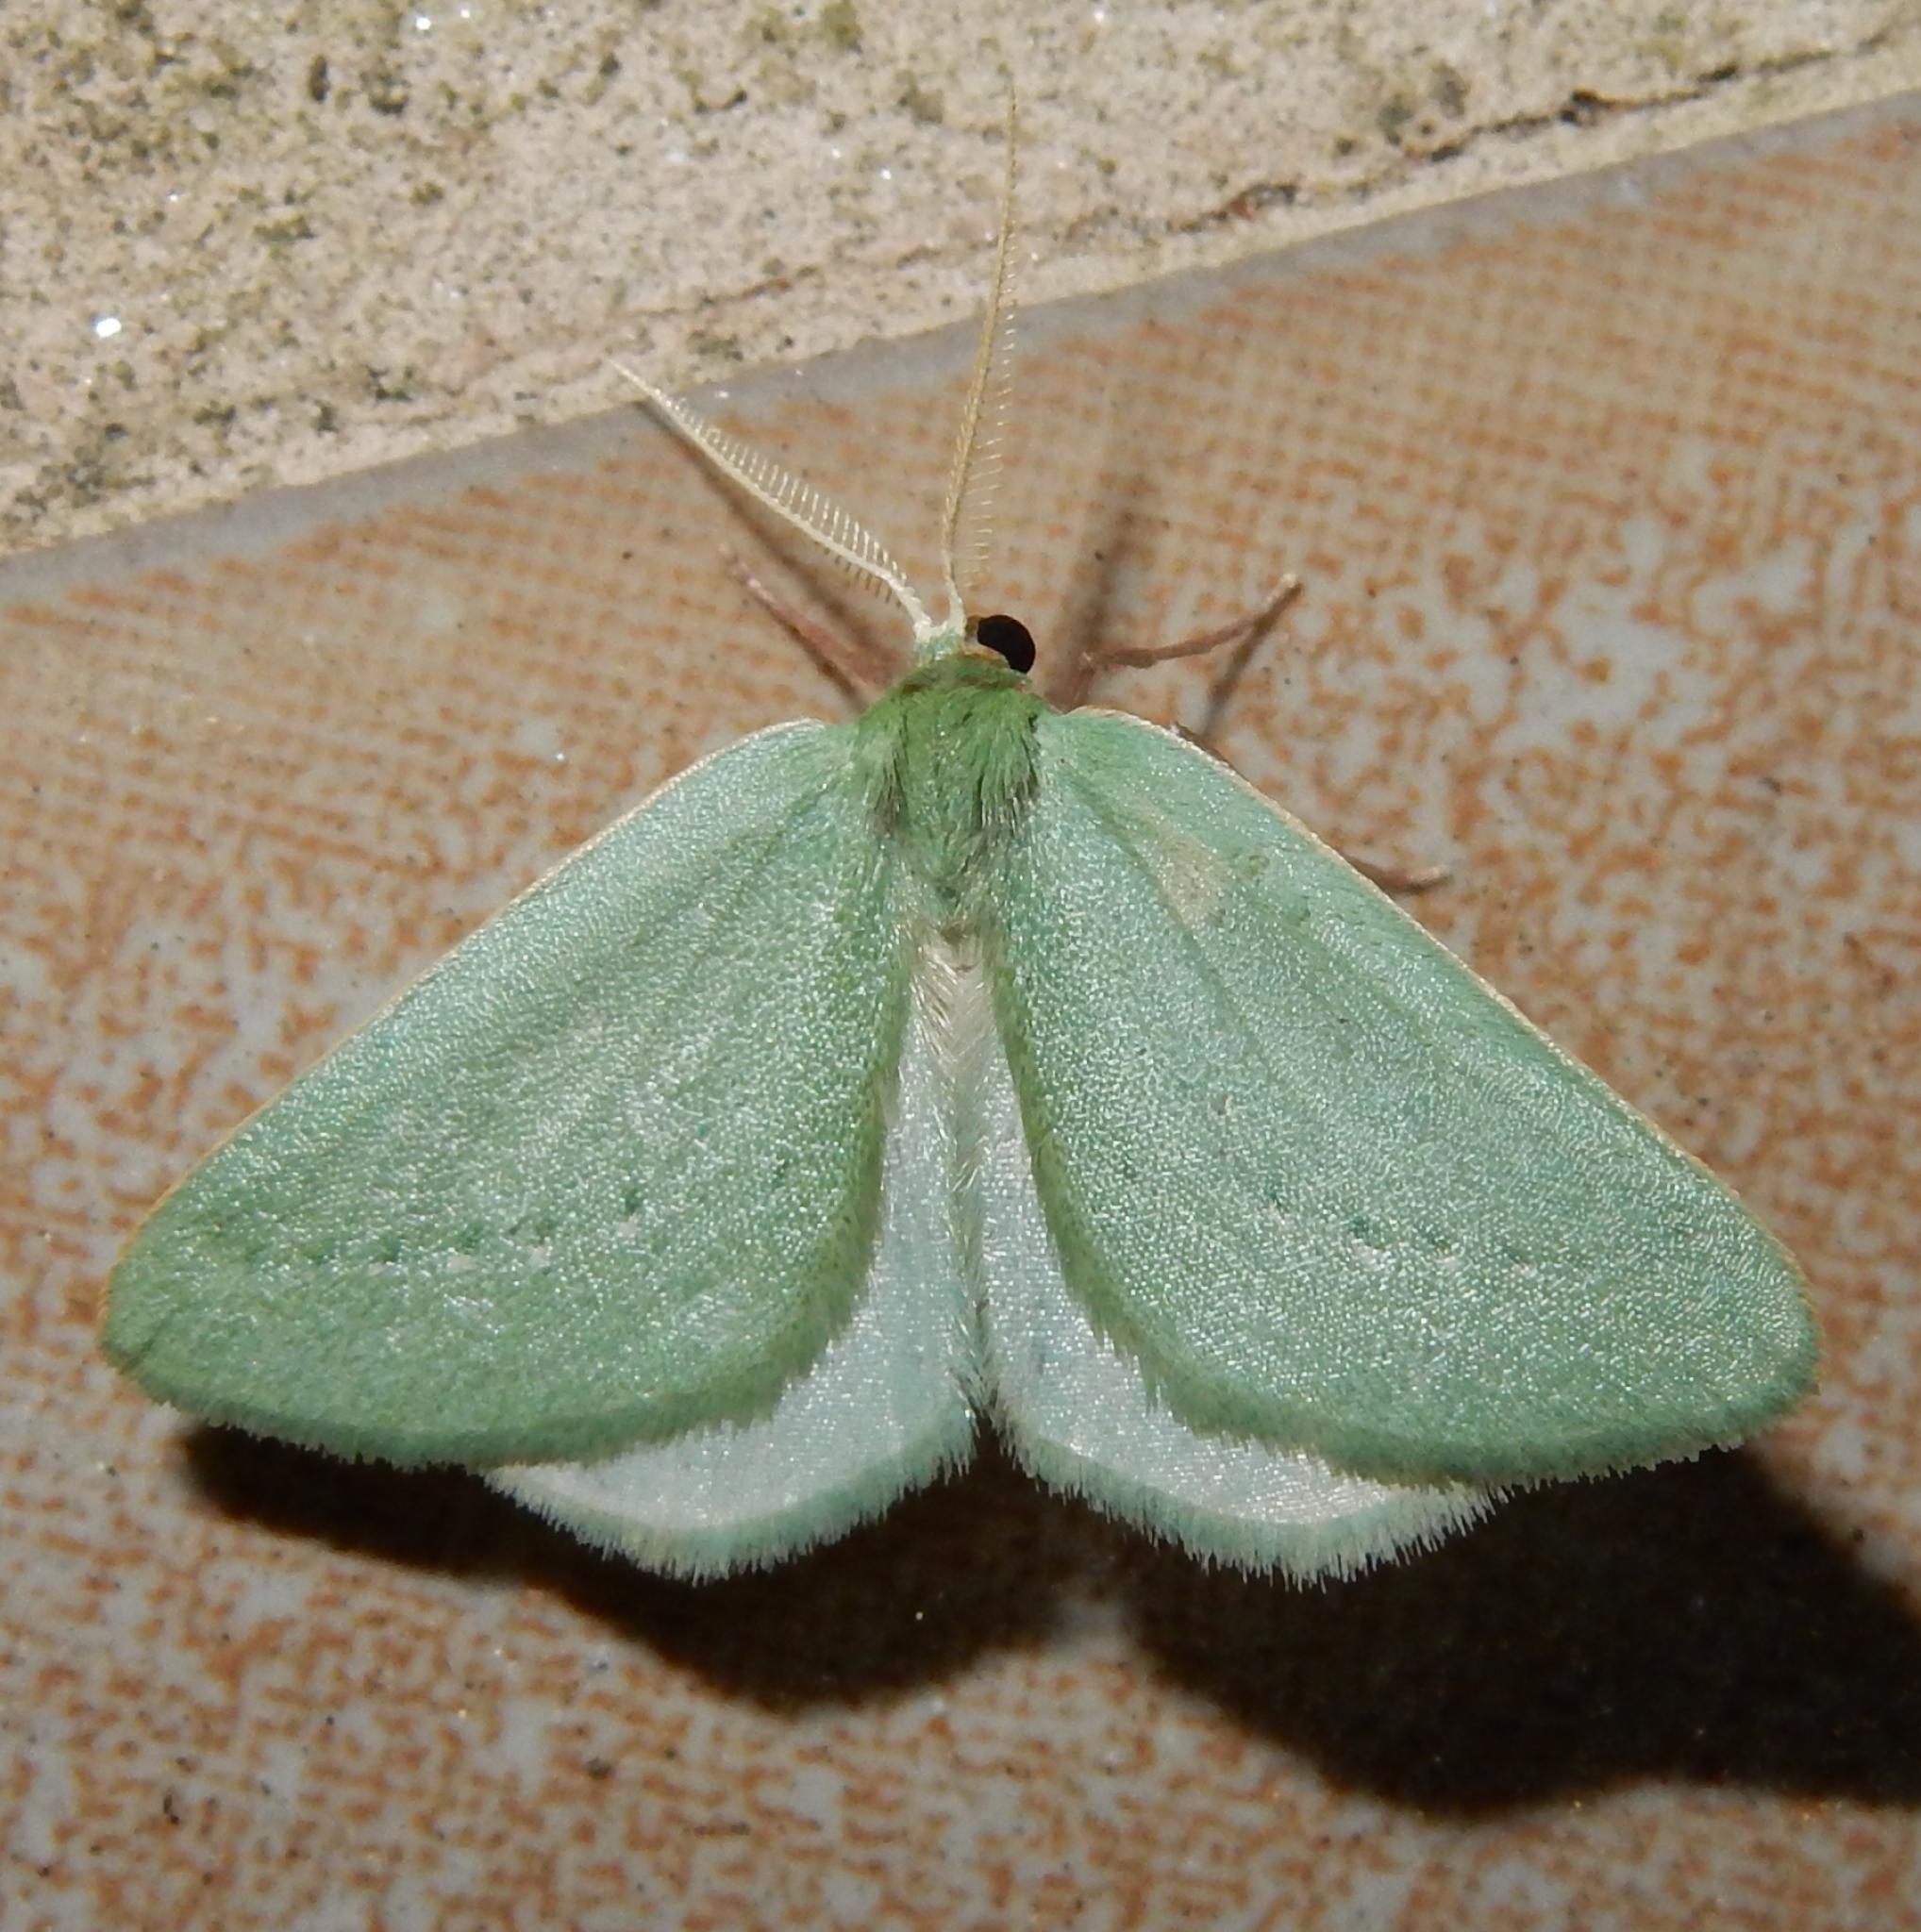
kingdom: Animalia
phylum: Arthropoda
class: Insecta
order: Lepidoptera
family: Geometridae
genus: Allochlorodes
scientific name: Allochlorodes elpis
